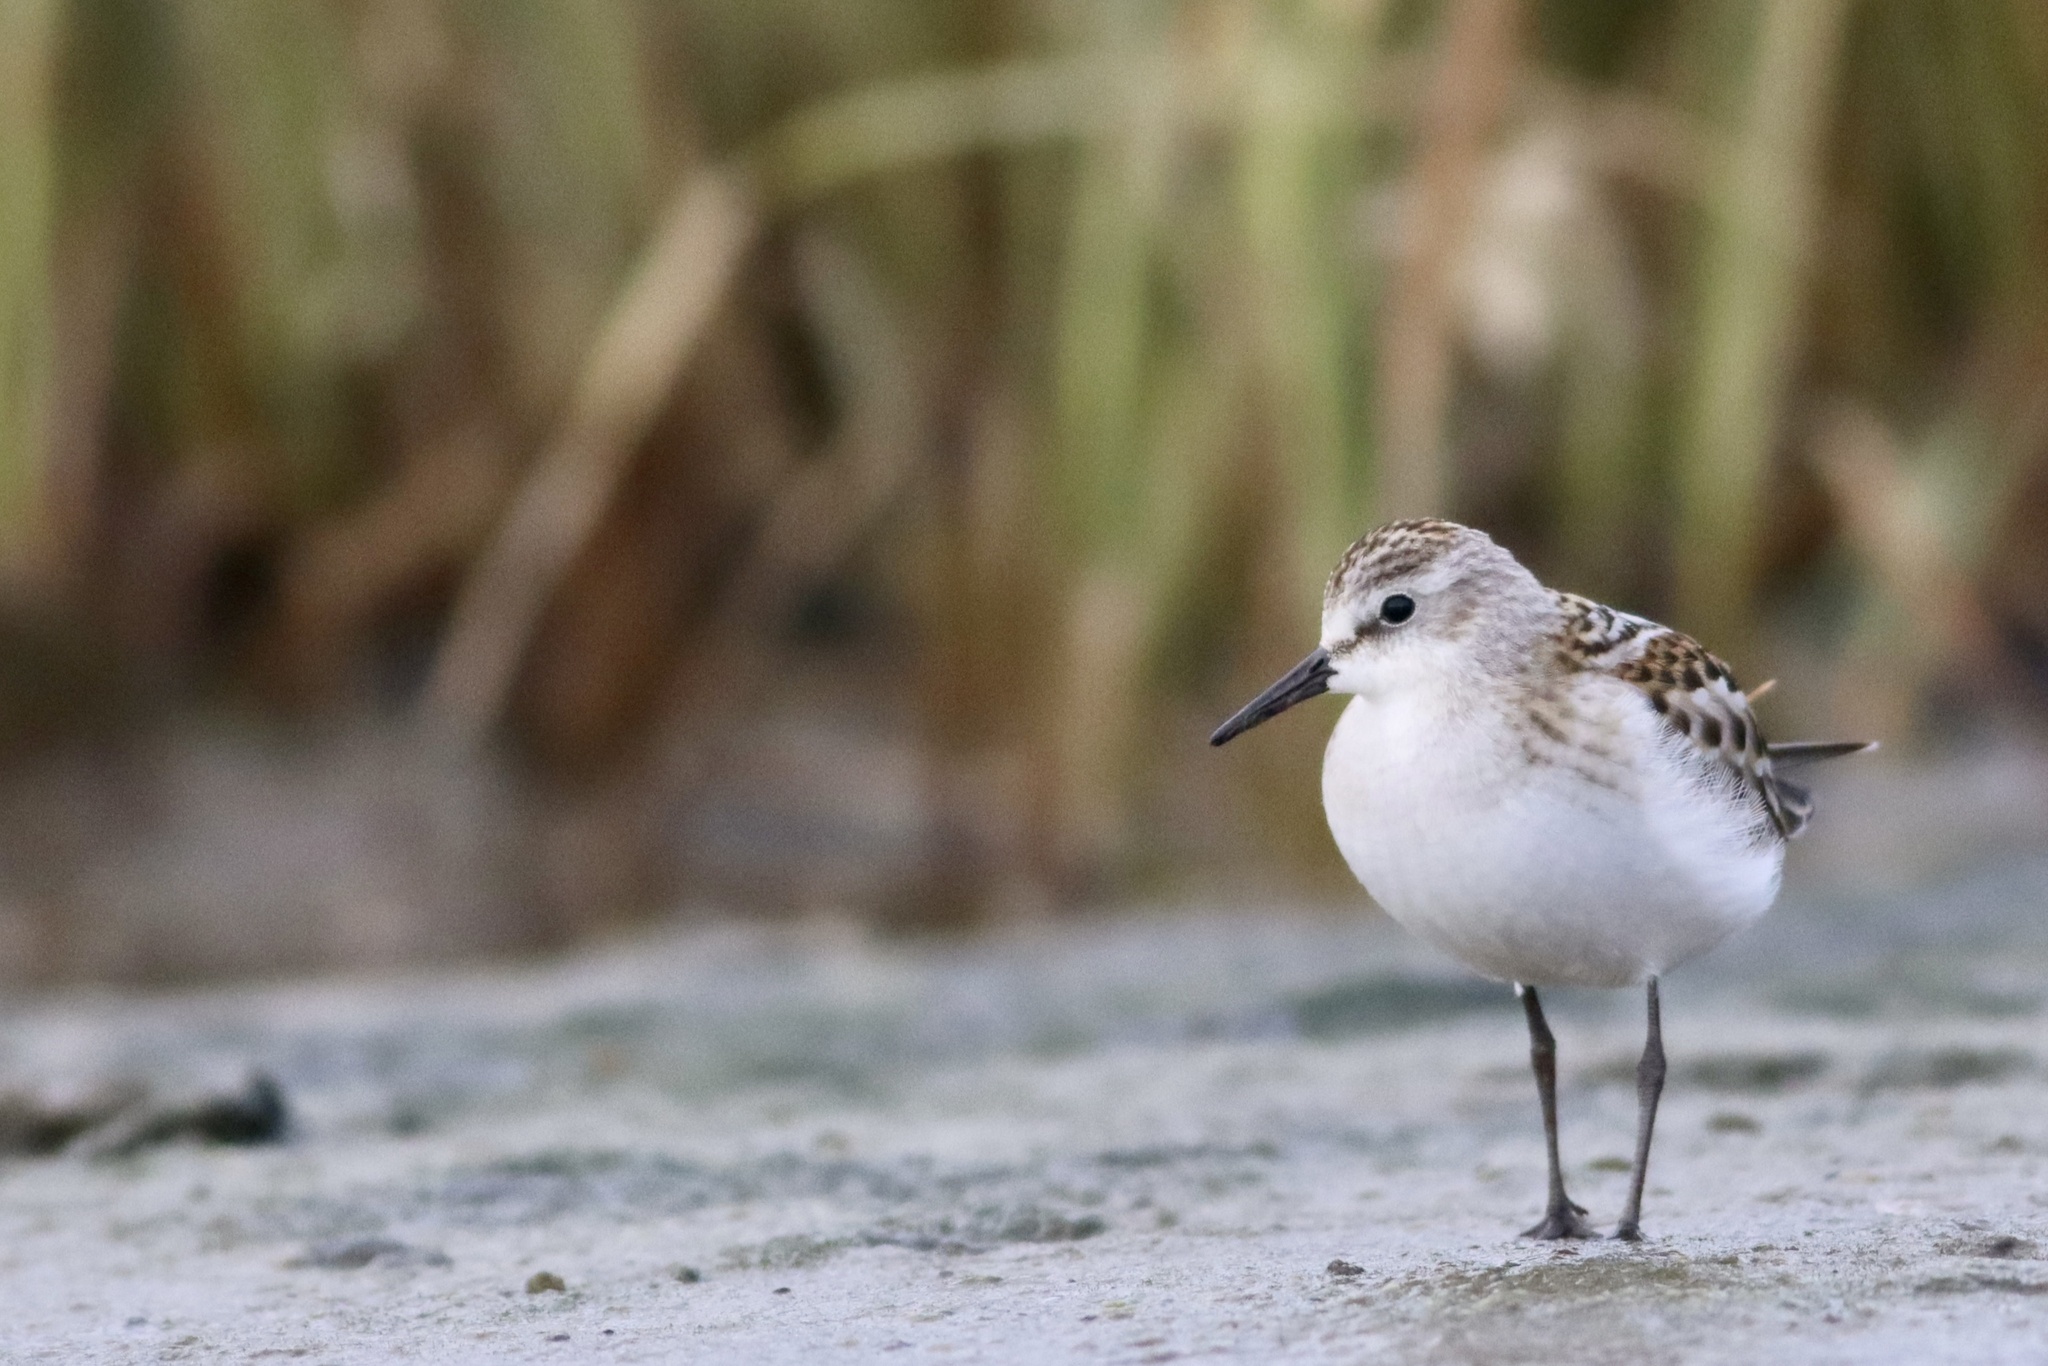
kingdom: Animalia
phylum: Chordata
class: Aves
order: Charadriiformes
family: Scolopacidae
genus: Calidris
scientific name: Calidris minuta
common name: Little stint
